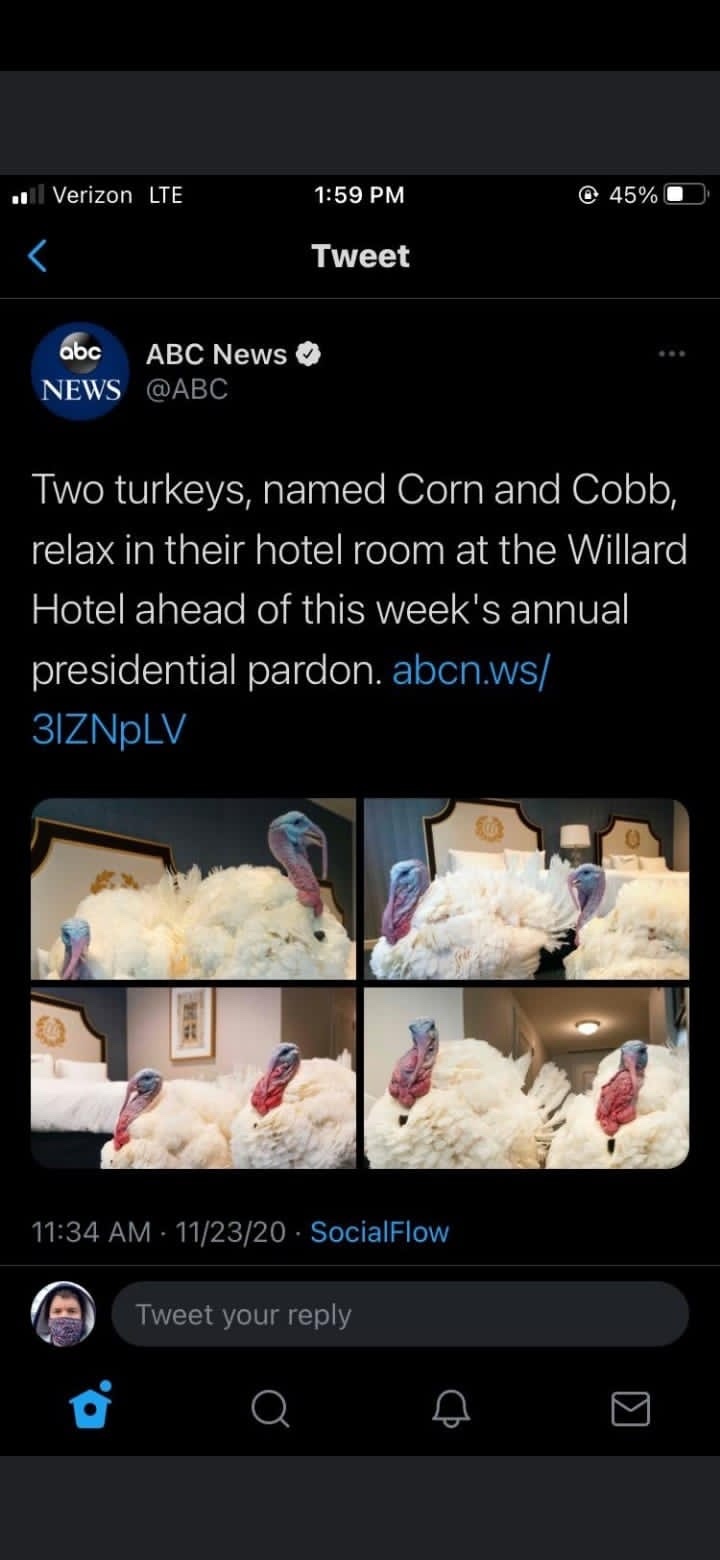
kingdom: Fungi
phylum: Basidiomycota
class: Agaricomycetes
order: Agaricales
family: Sarcomyxaceae
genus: Sarcomyxa
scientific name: Sarcomyxa serotina
